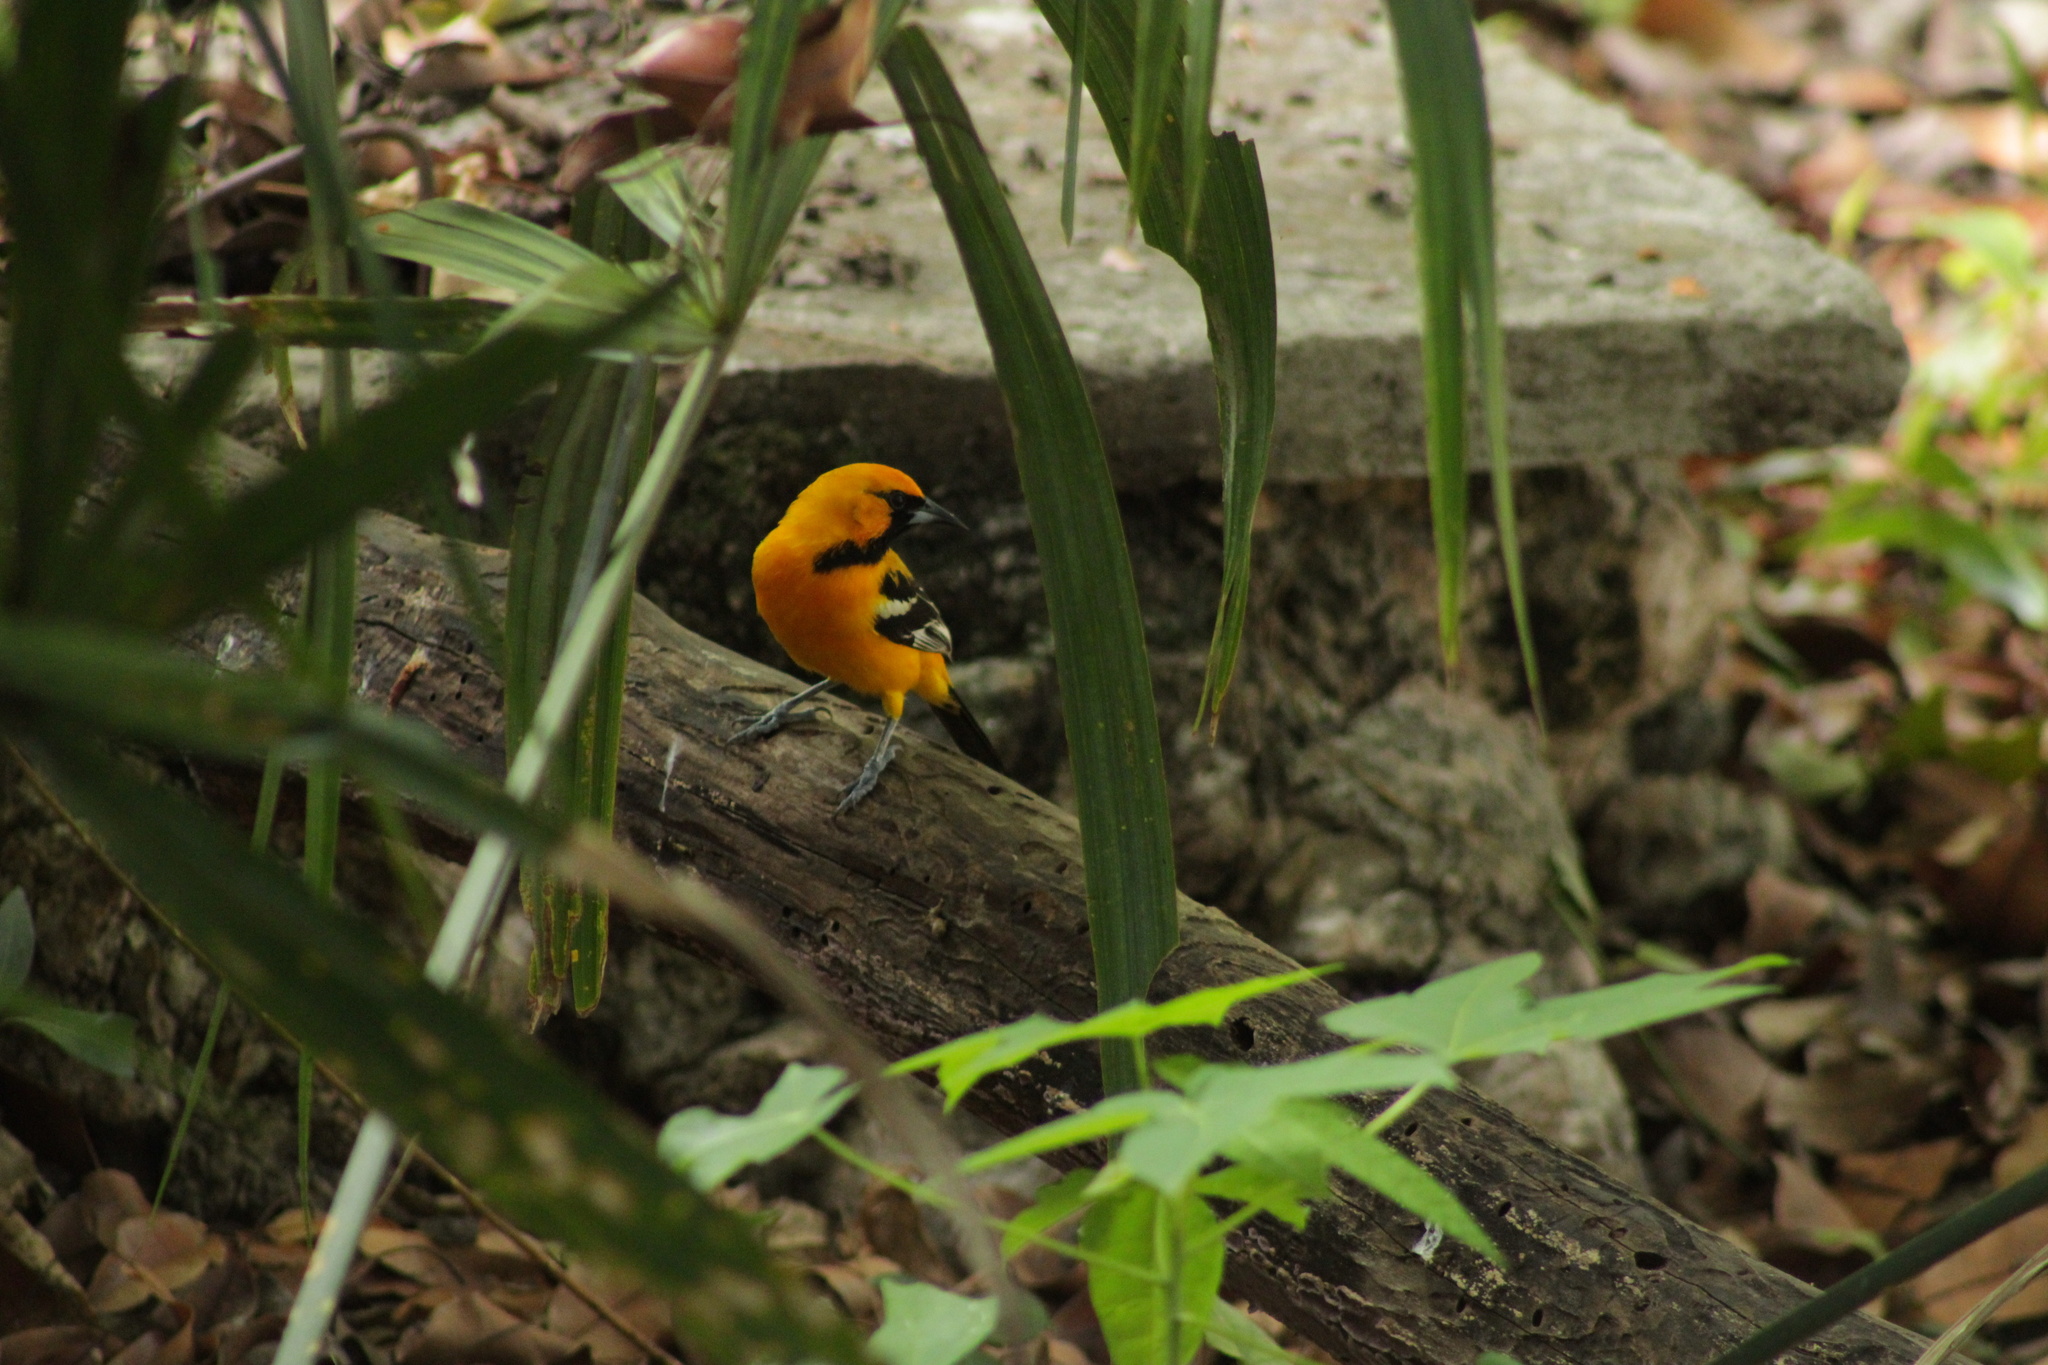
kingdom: Animalia
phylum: Chordata
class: Aves
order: Passeriformes
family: Icteridae
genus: Icterus
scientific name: Icterus auratus
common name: Orange oriole
